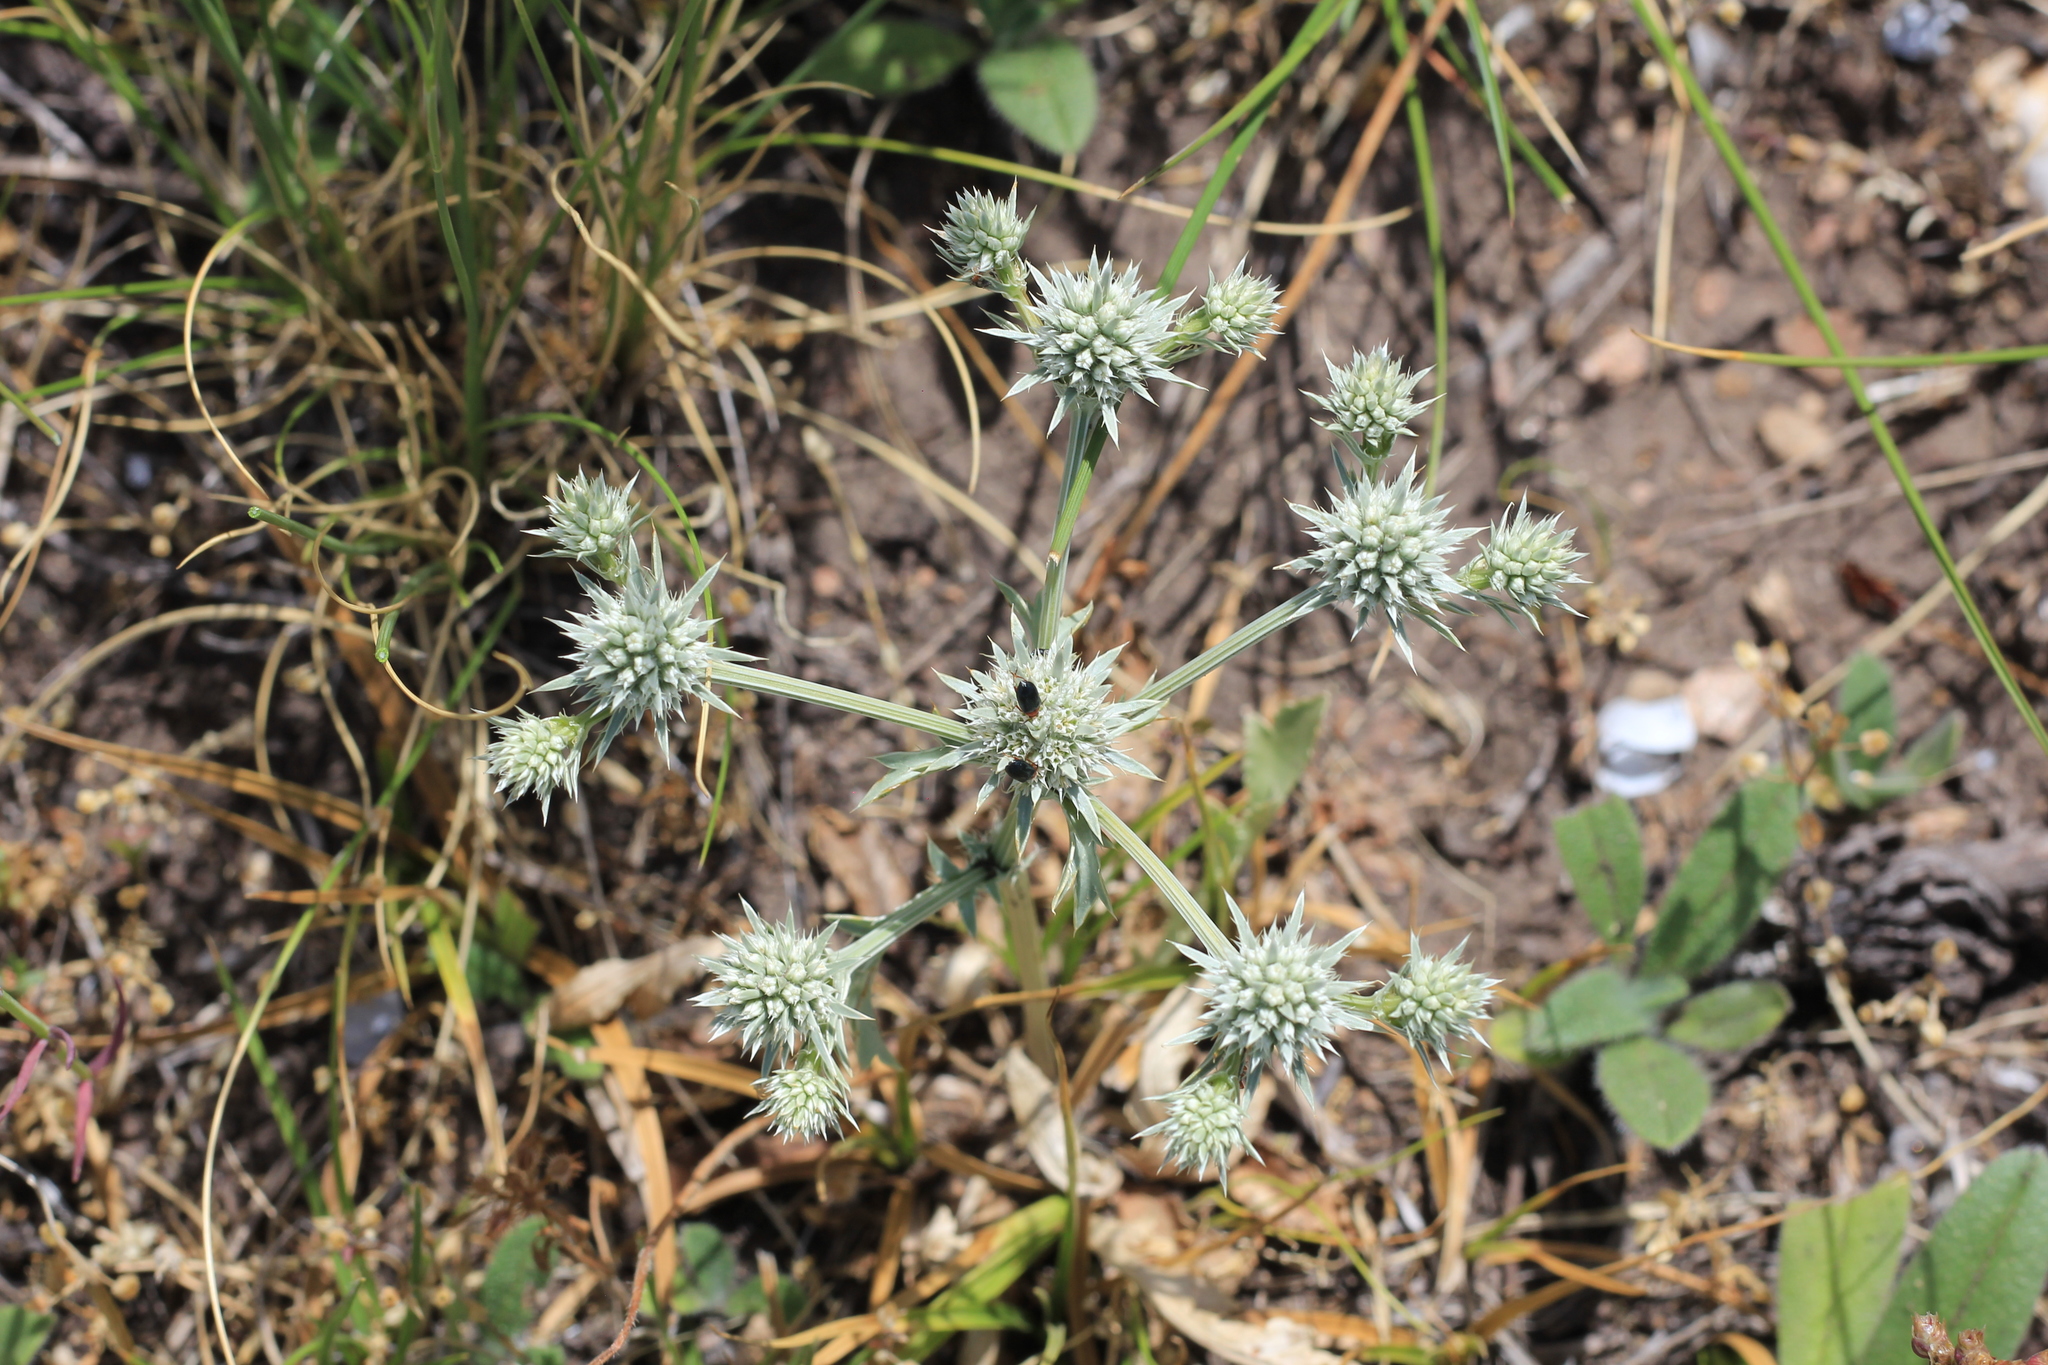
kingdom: Plantae
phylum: Tracheophyta
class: Magnoliopsida
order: Apiales
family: Apiaceae
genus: Eryngium
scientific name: Eryngium nudicaule
